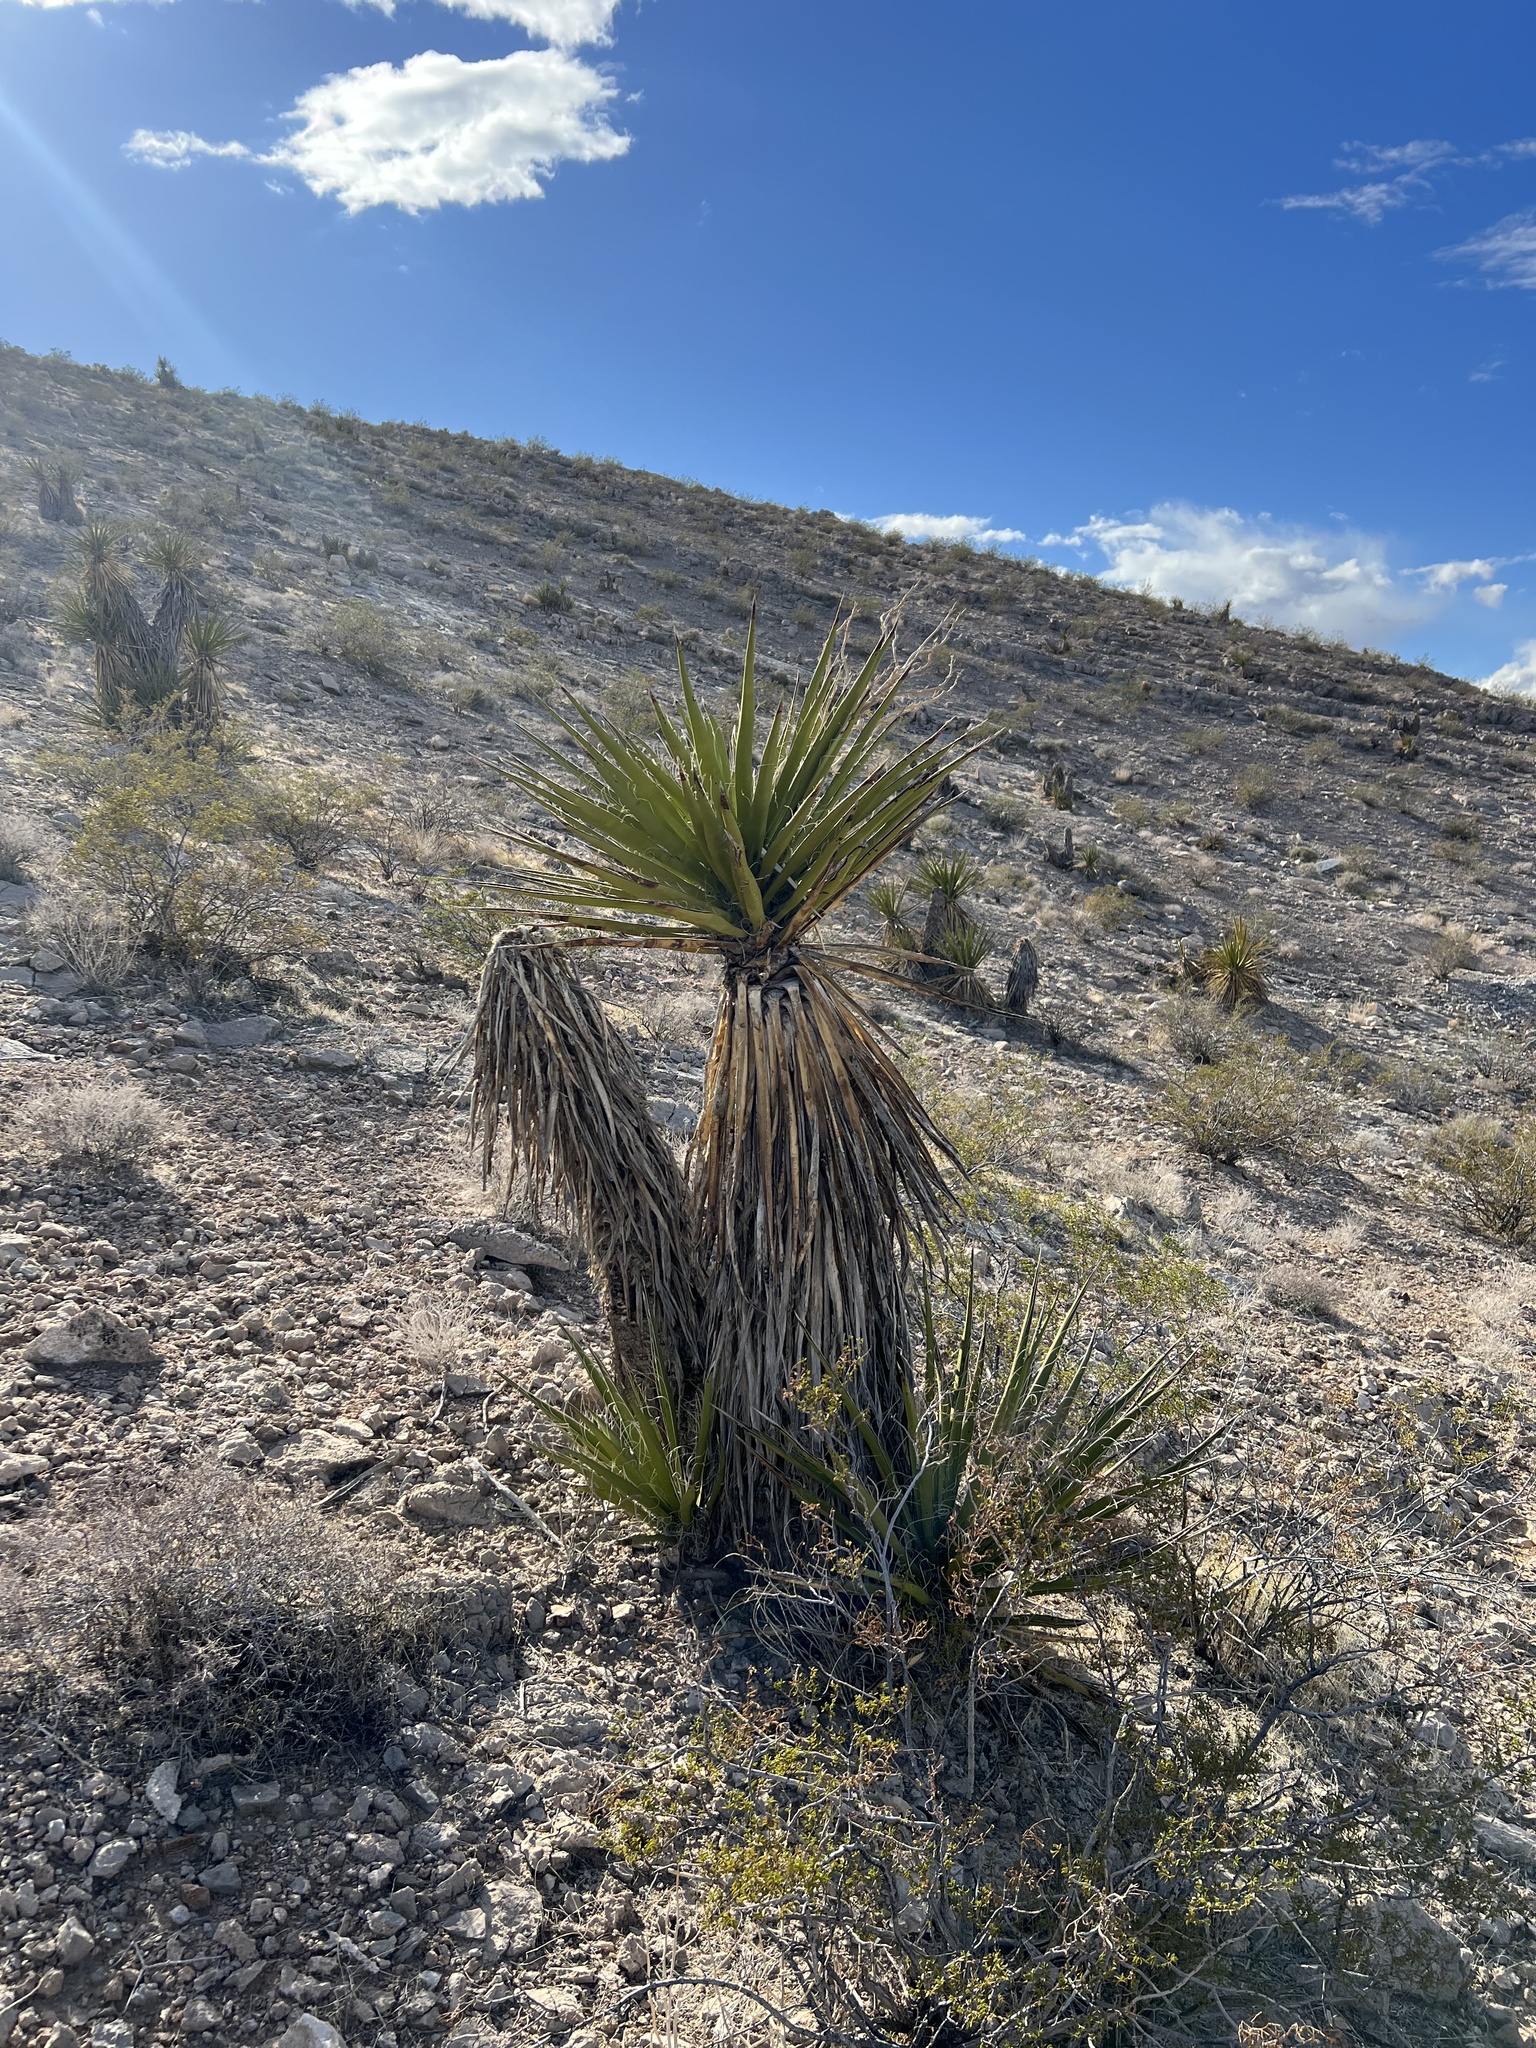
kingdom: Plantae
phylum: Tracheophyta
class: Liliopsida
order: Asparagales
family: Asparagaceae
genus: Yucca
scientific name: Yucca schidigera
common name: Mojave yucca
